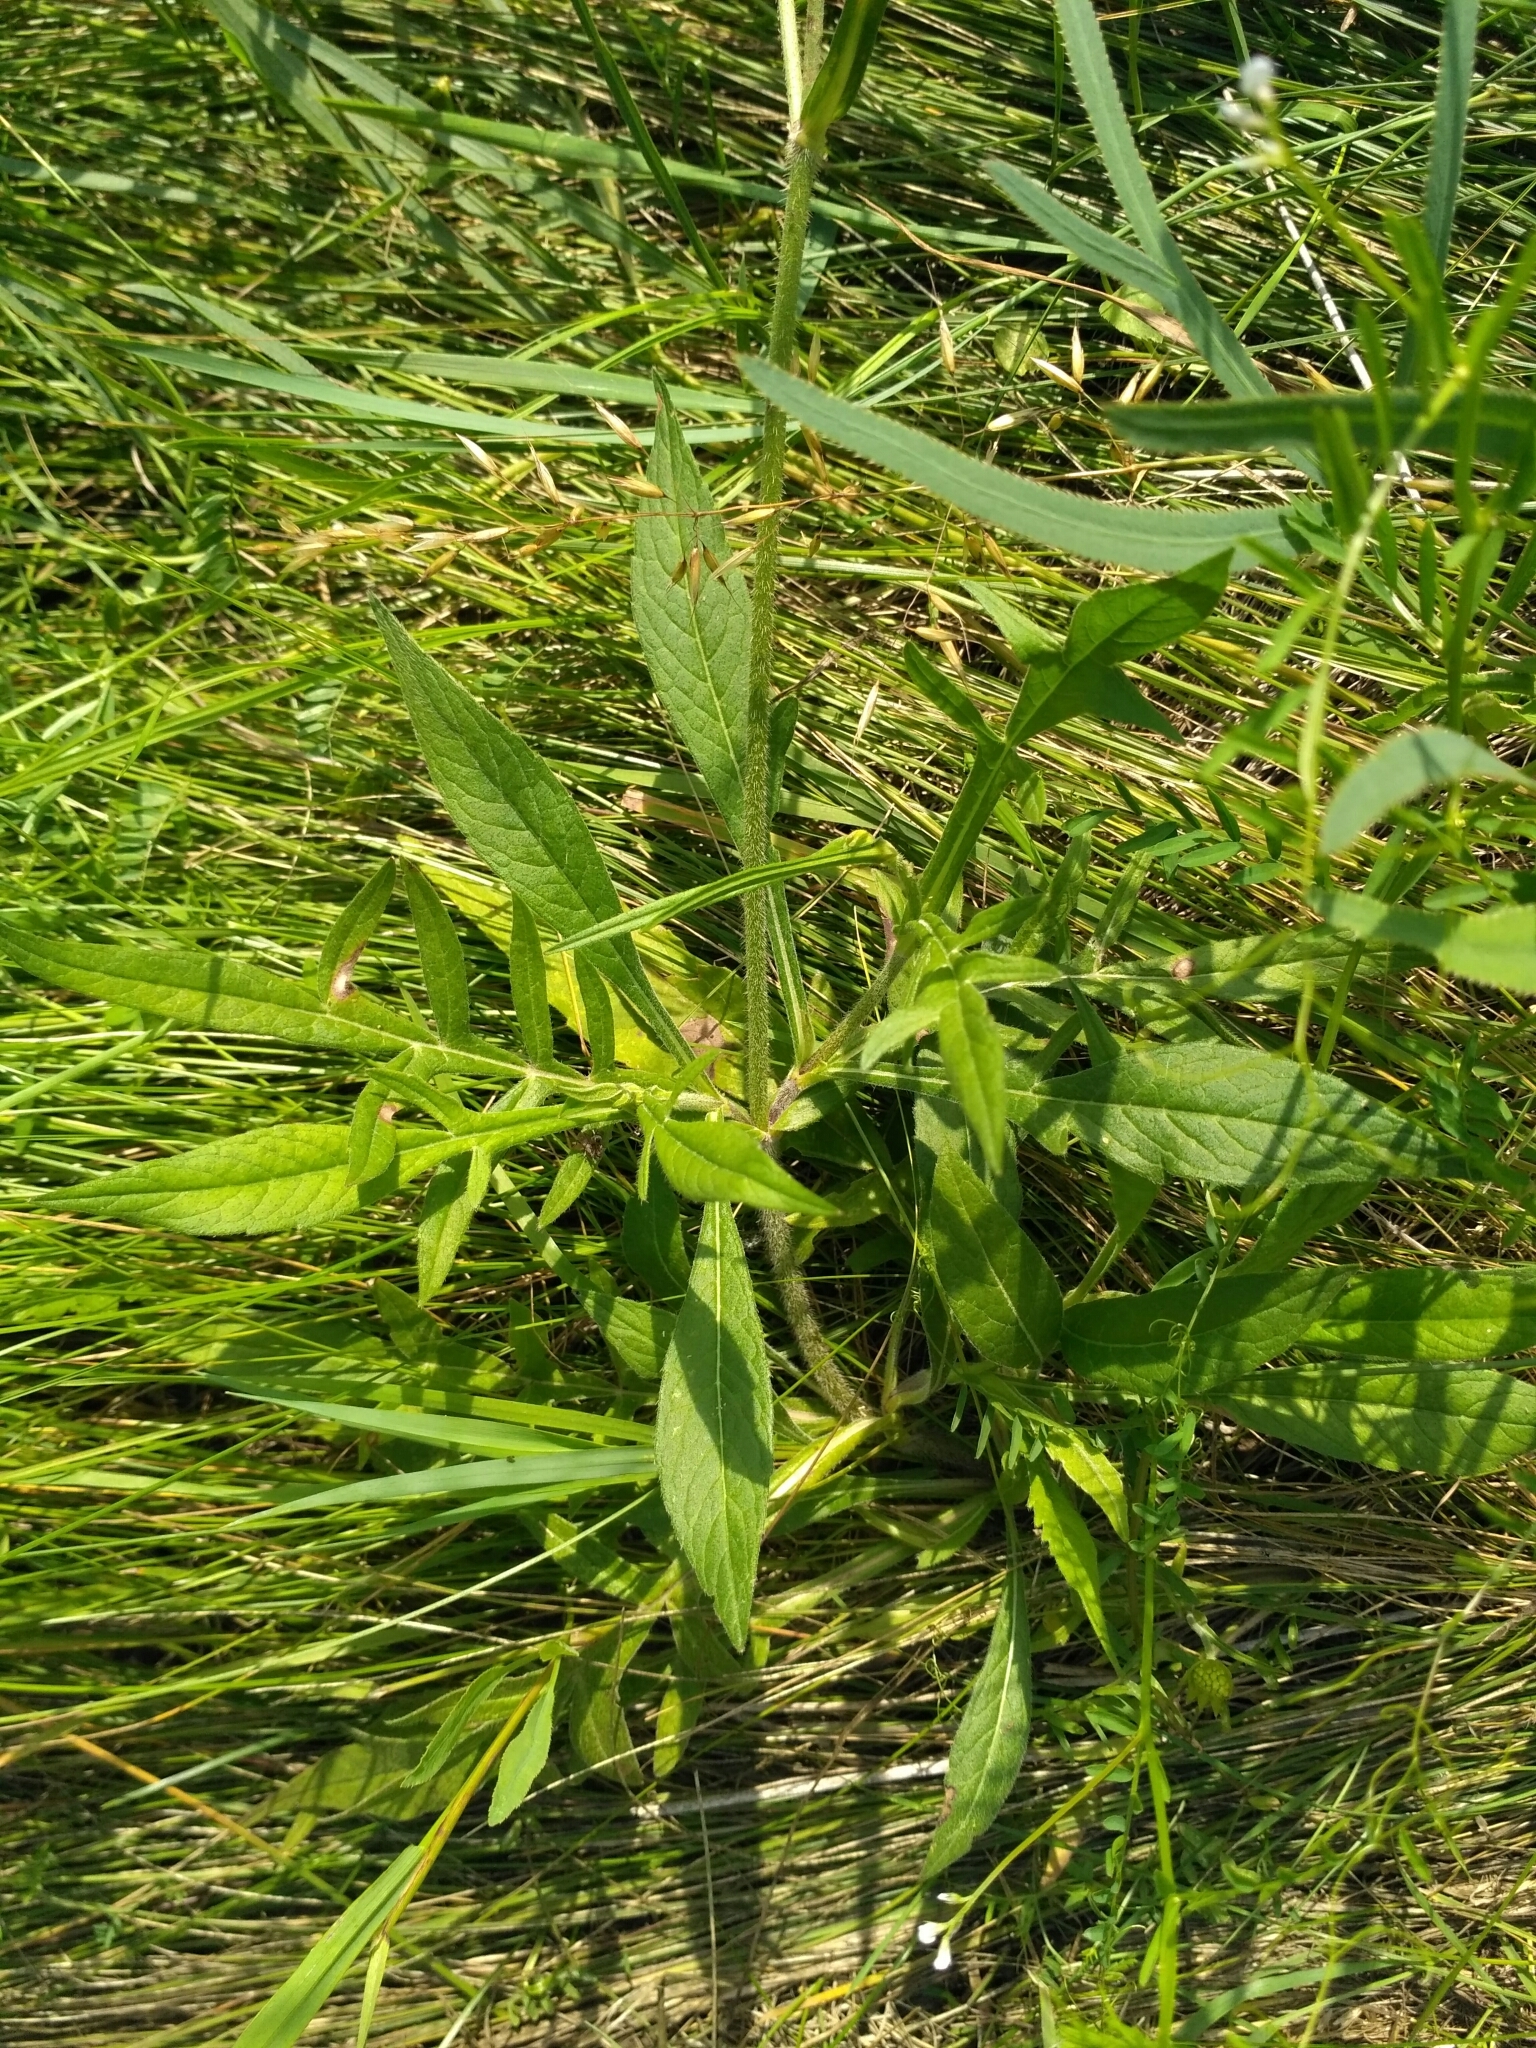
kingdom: Plantae
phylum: Tracheophyta
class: Magnoliopsida
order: Dipsacales
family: Caprifoliaceae
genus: Knautia
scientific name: Knautia arvensis
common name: Field scabiosa
